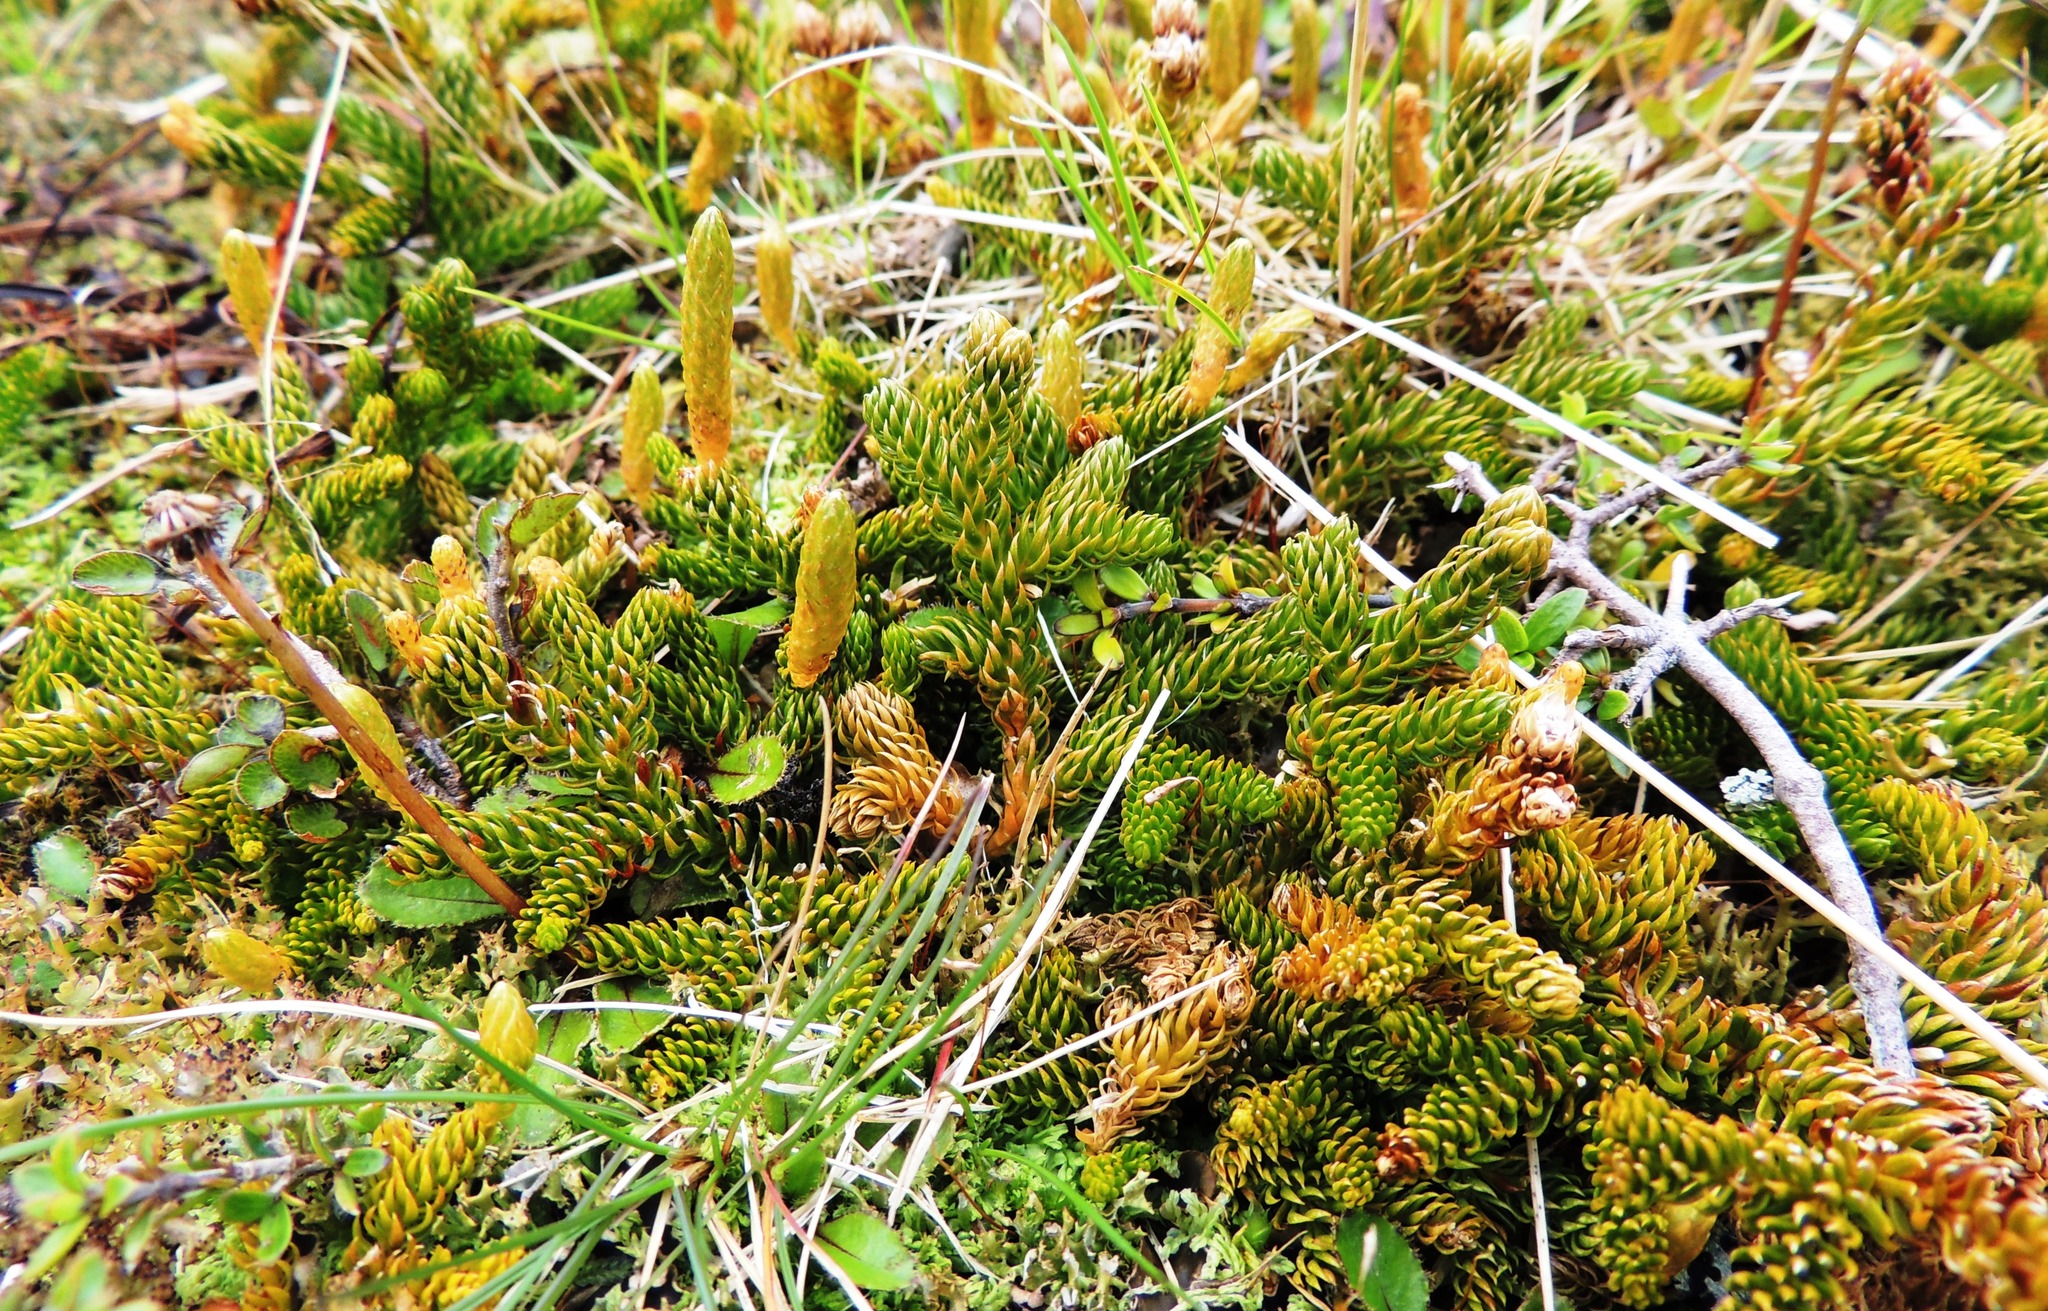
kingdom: Plantae
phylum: Tracheophyta
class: Lycopodiopsida
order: Lycopodiales
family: Lycopodiaceae
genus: Austrolycopodium
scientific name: Austrolycopodium fastigiatum
